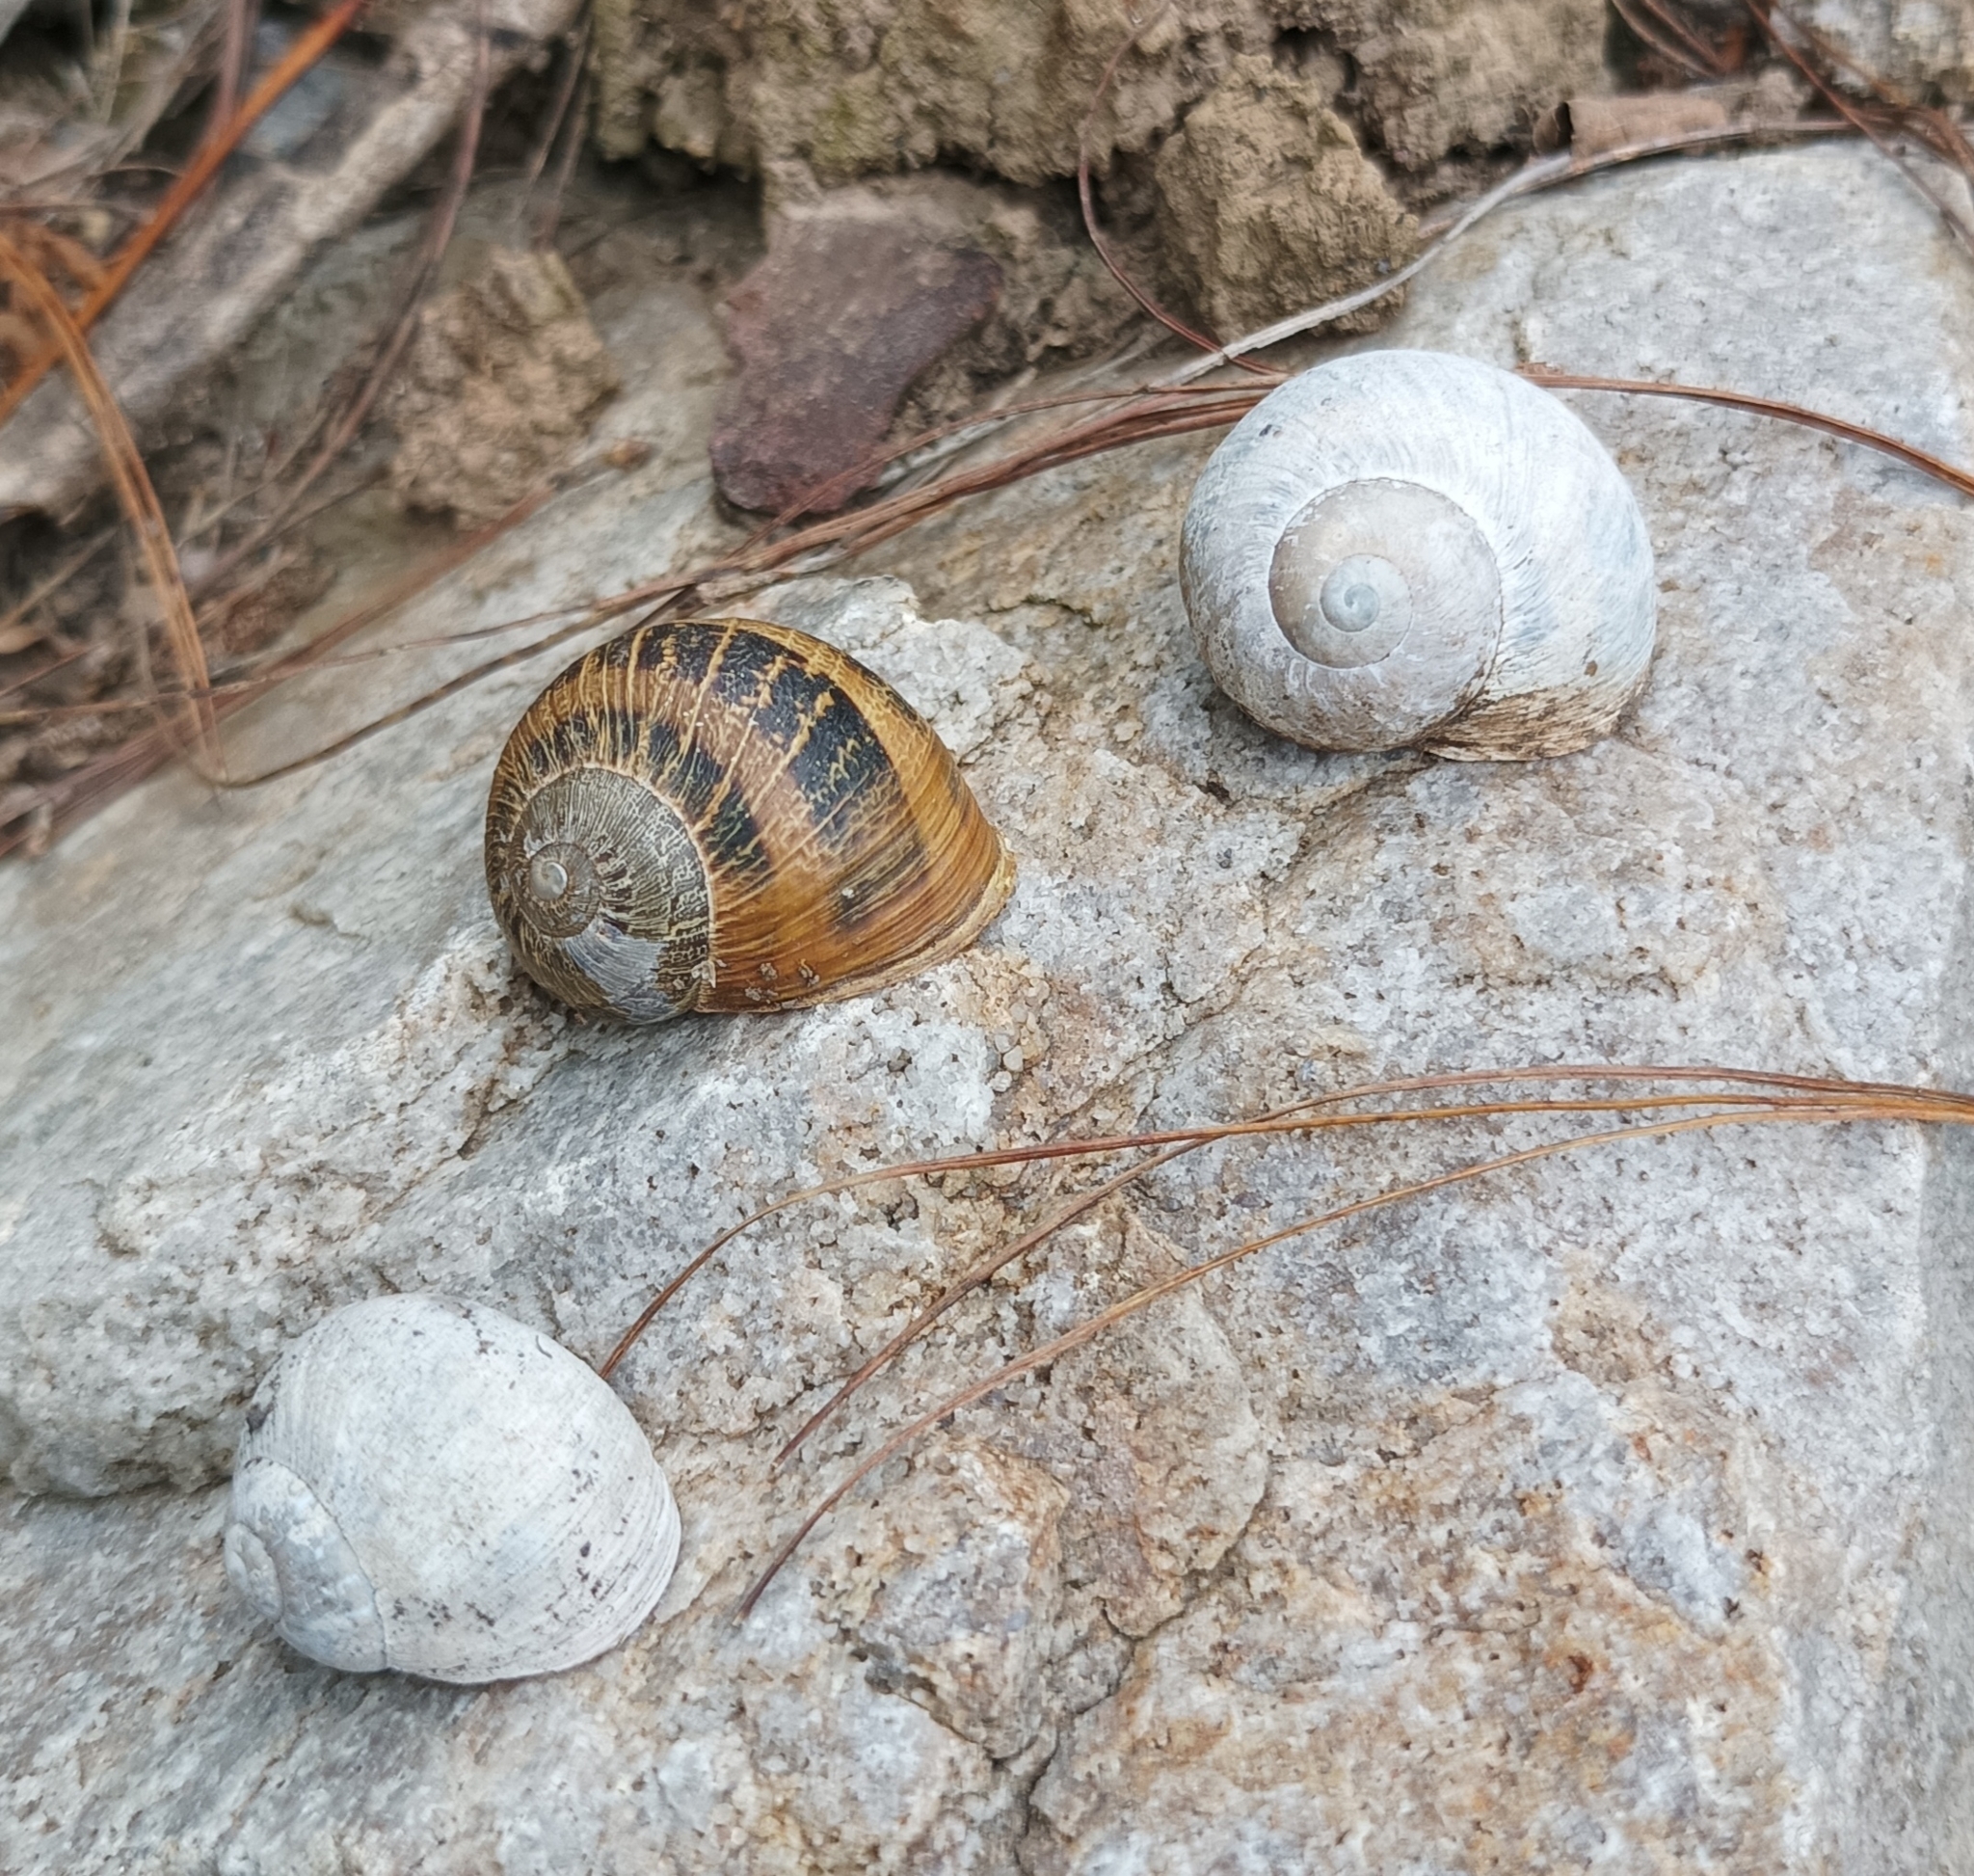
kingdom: Animalia
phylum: Mollusca
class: Gastropoda
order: Stylommatophora
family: Helicidae
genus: Cornu
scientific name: Cornu aspersum
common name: Brown garden snail
